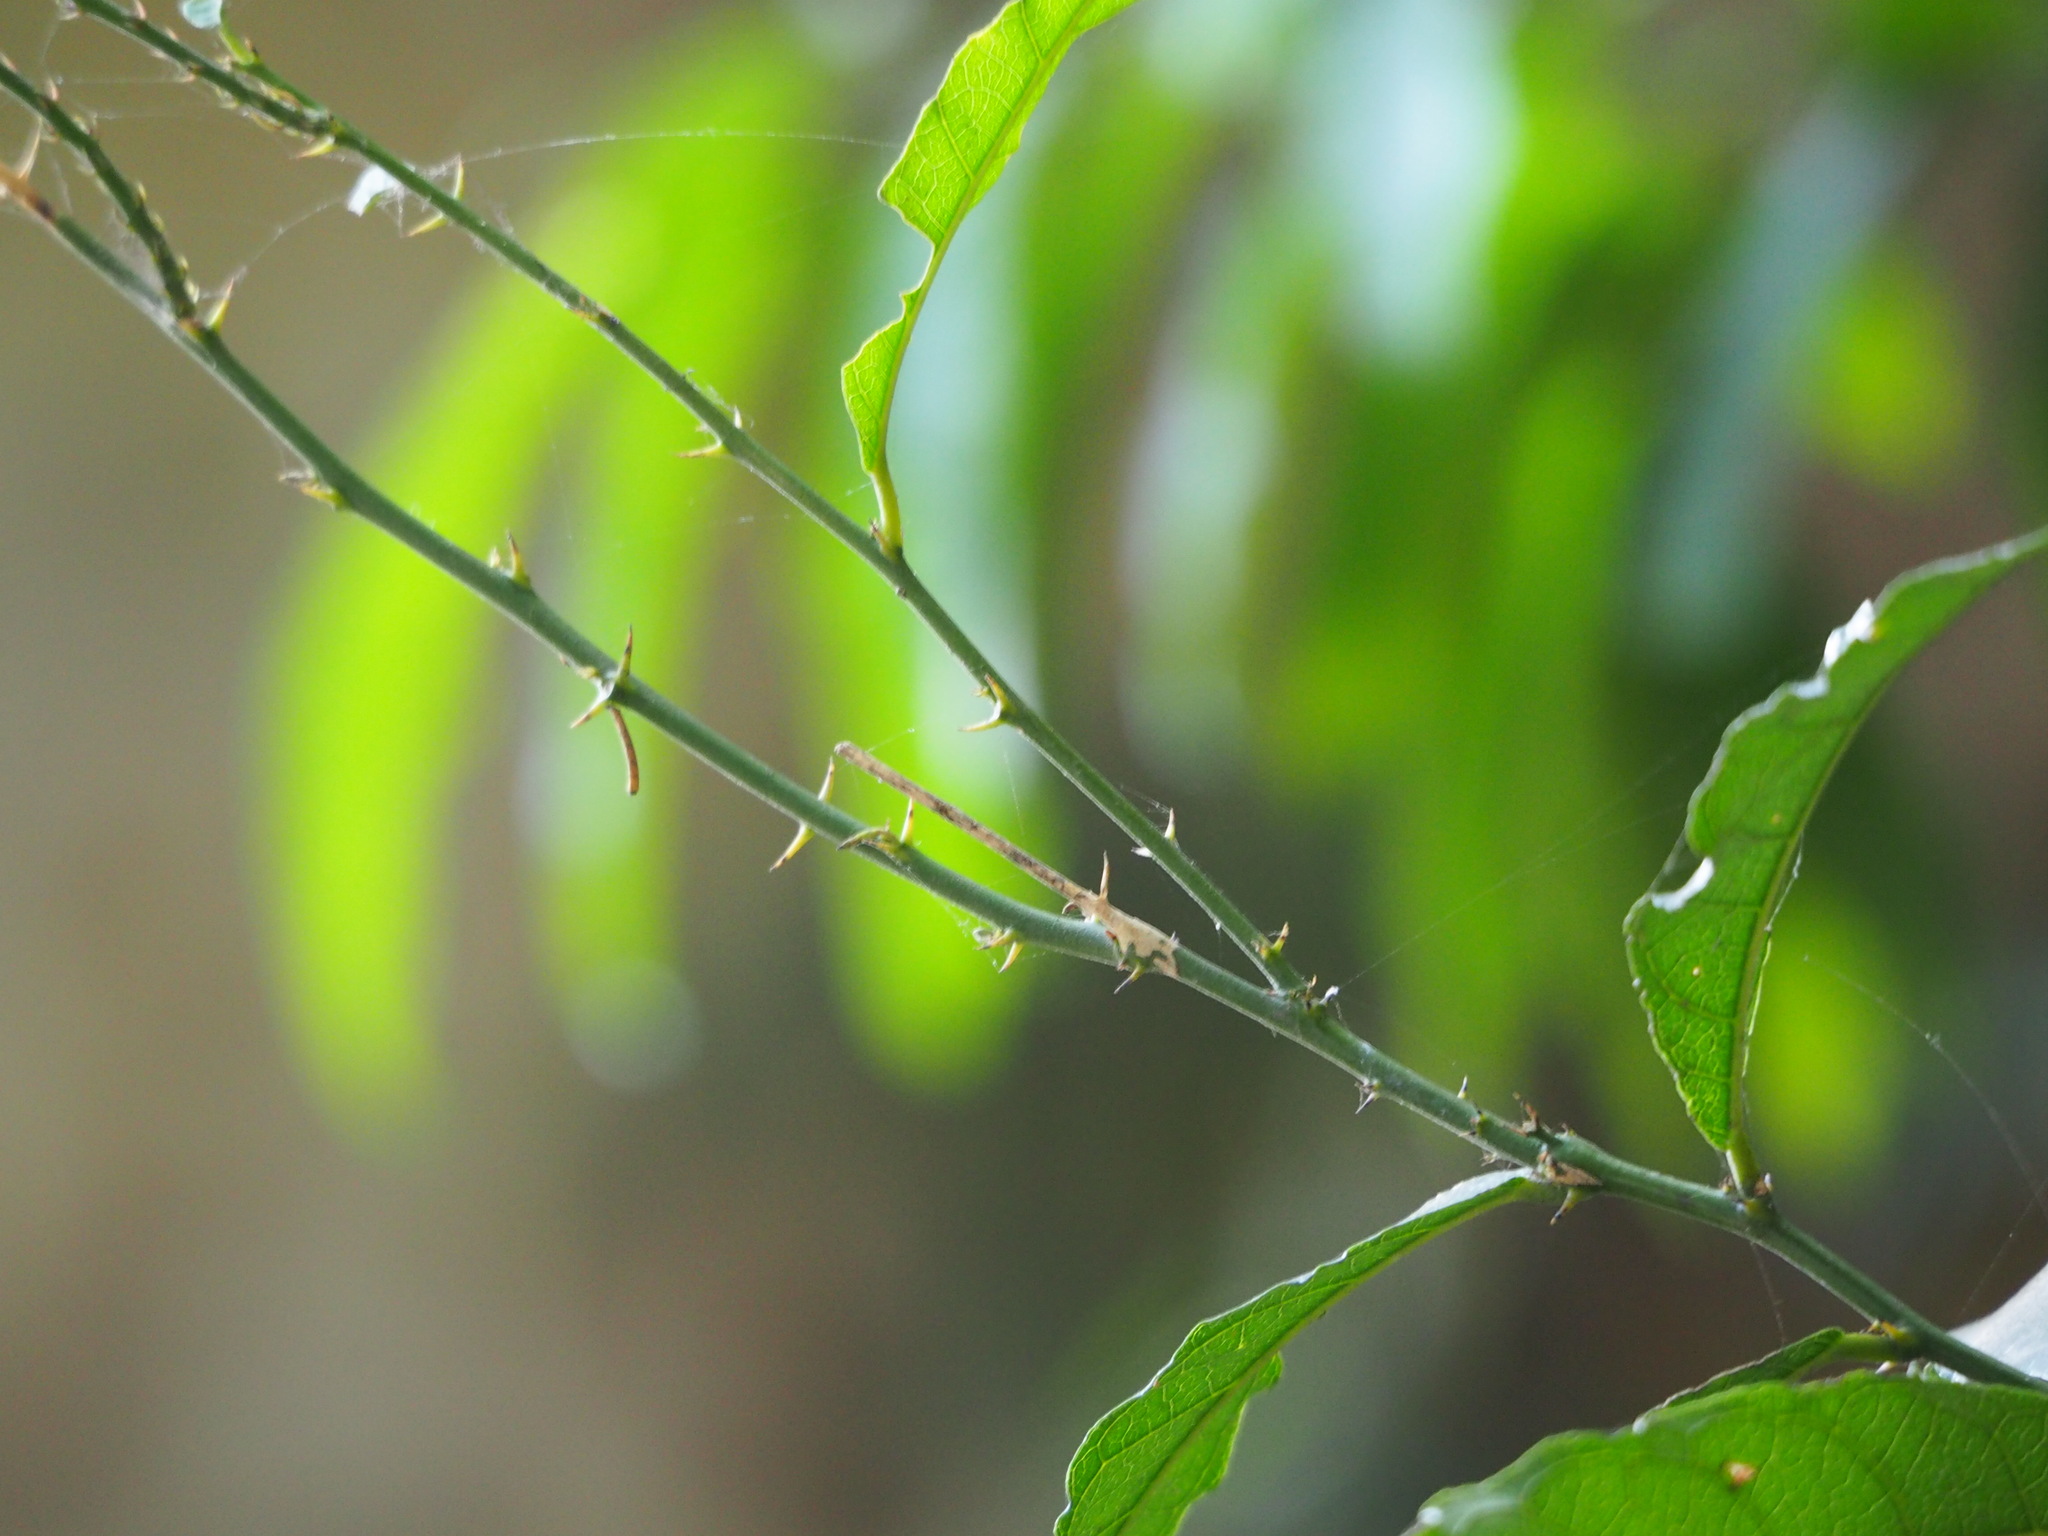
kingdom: Plantae
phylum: Tracheophyta
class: Magnoliopsida
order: Brassicales
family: Capparaceae
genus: Capparis
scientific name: Capparis henryi
